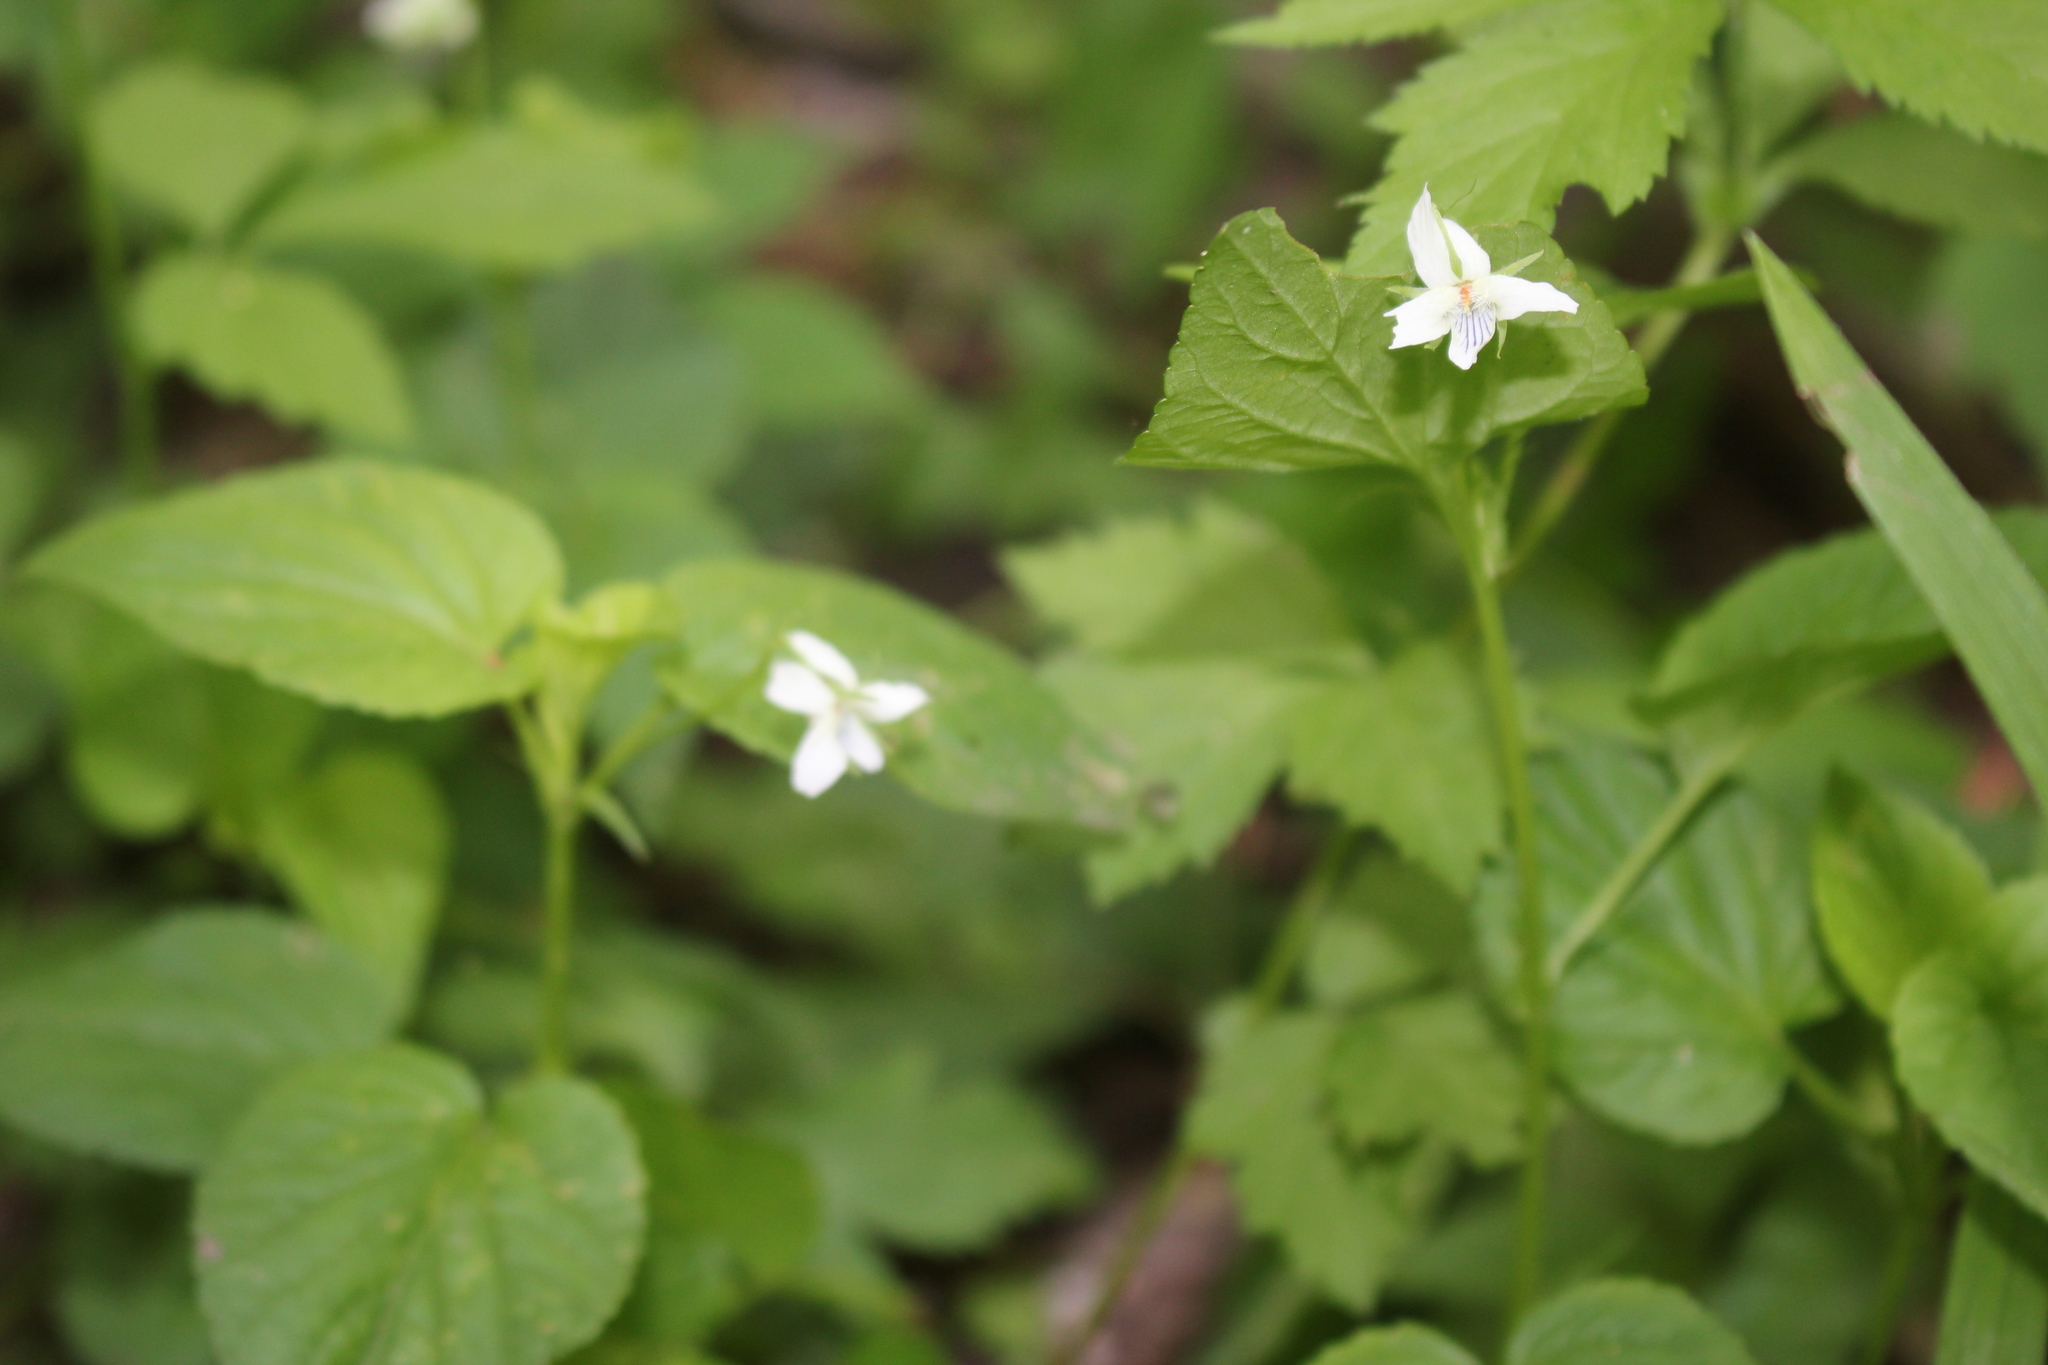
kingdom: Plantae
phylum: Tracheophyta
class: Magnoliopsida
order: Malpighiales
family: Violaceae
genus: Viola
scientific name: Viola striata
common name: Cream violet
